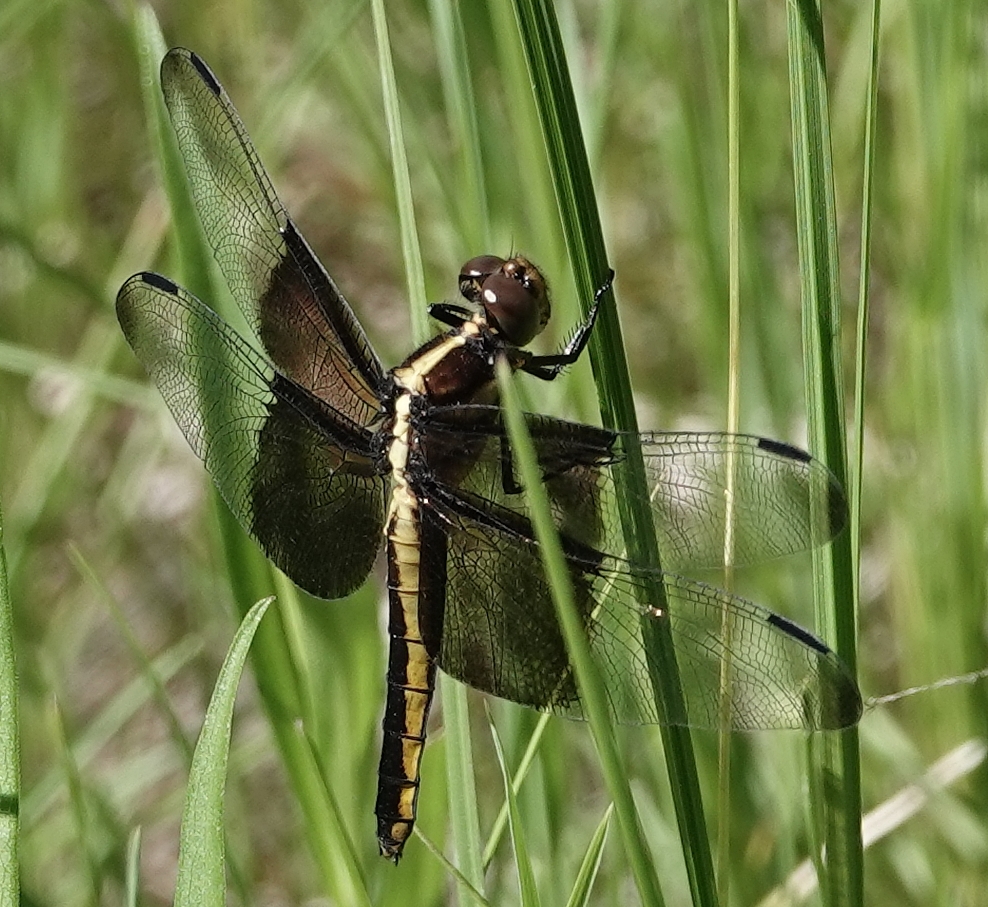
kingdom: Animalia
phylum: Arthropoda
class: Insecta
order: Odonata
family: Libellulidae
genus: Libellula
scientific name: Libellula luctuosa
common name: Widow skimmer
